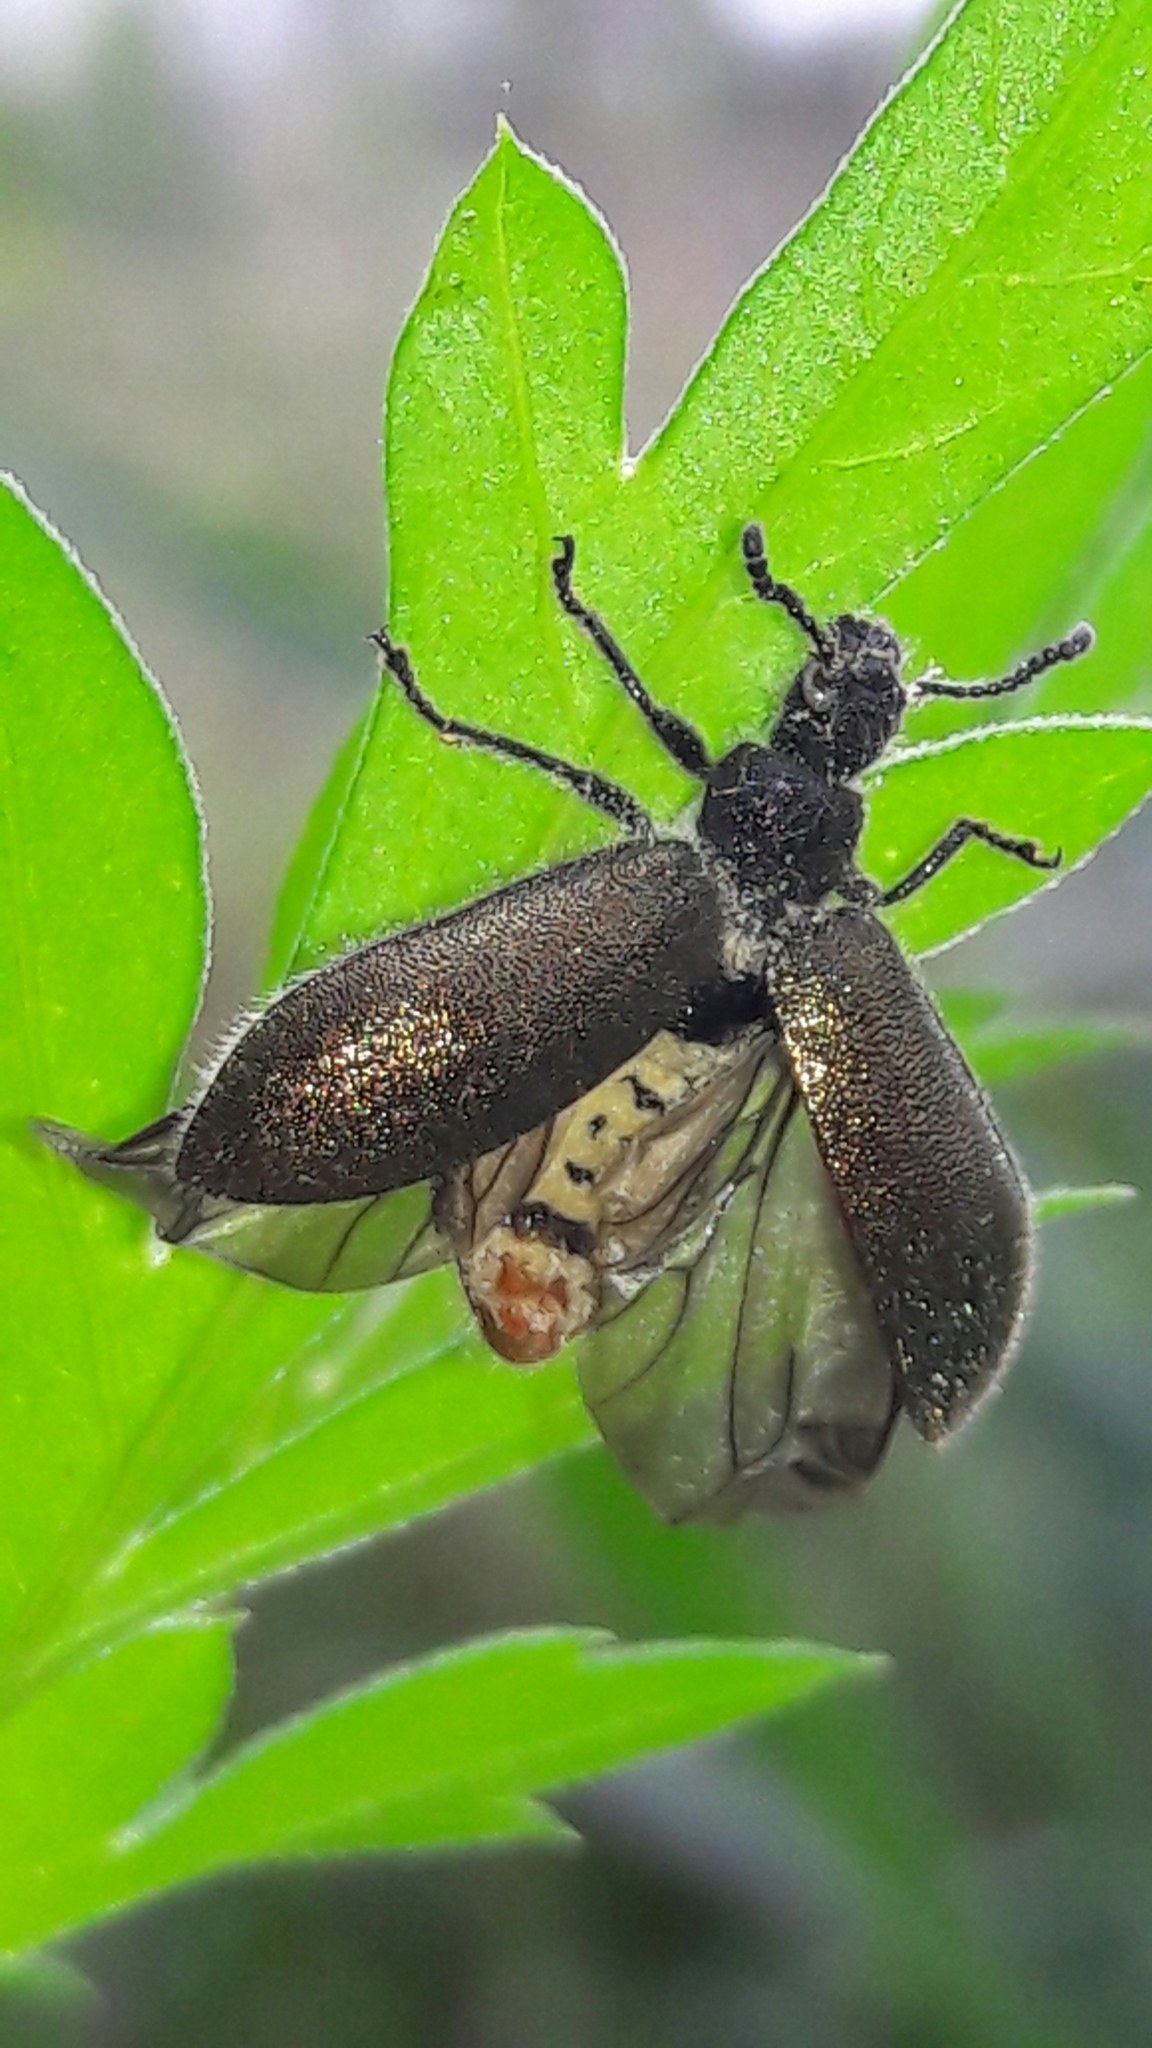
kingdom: Animalia
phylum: Arthropoda
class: Insecta
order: Coleoptera
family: Tenebrionidae
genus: Lagria
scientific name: Lagria villosa
